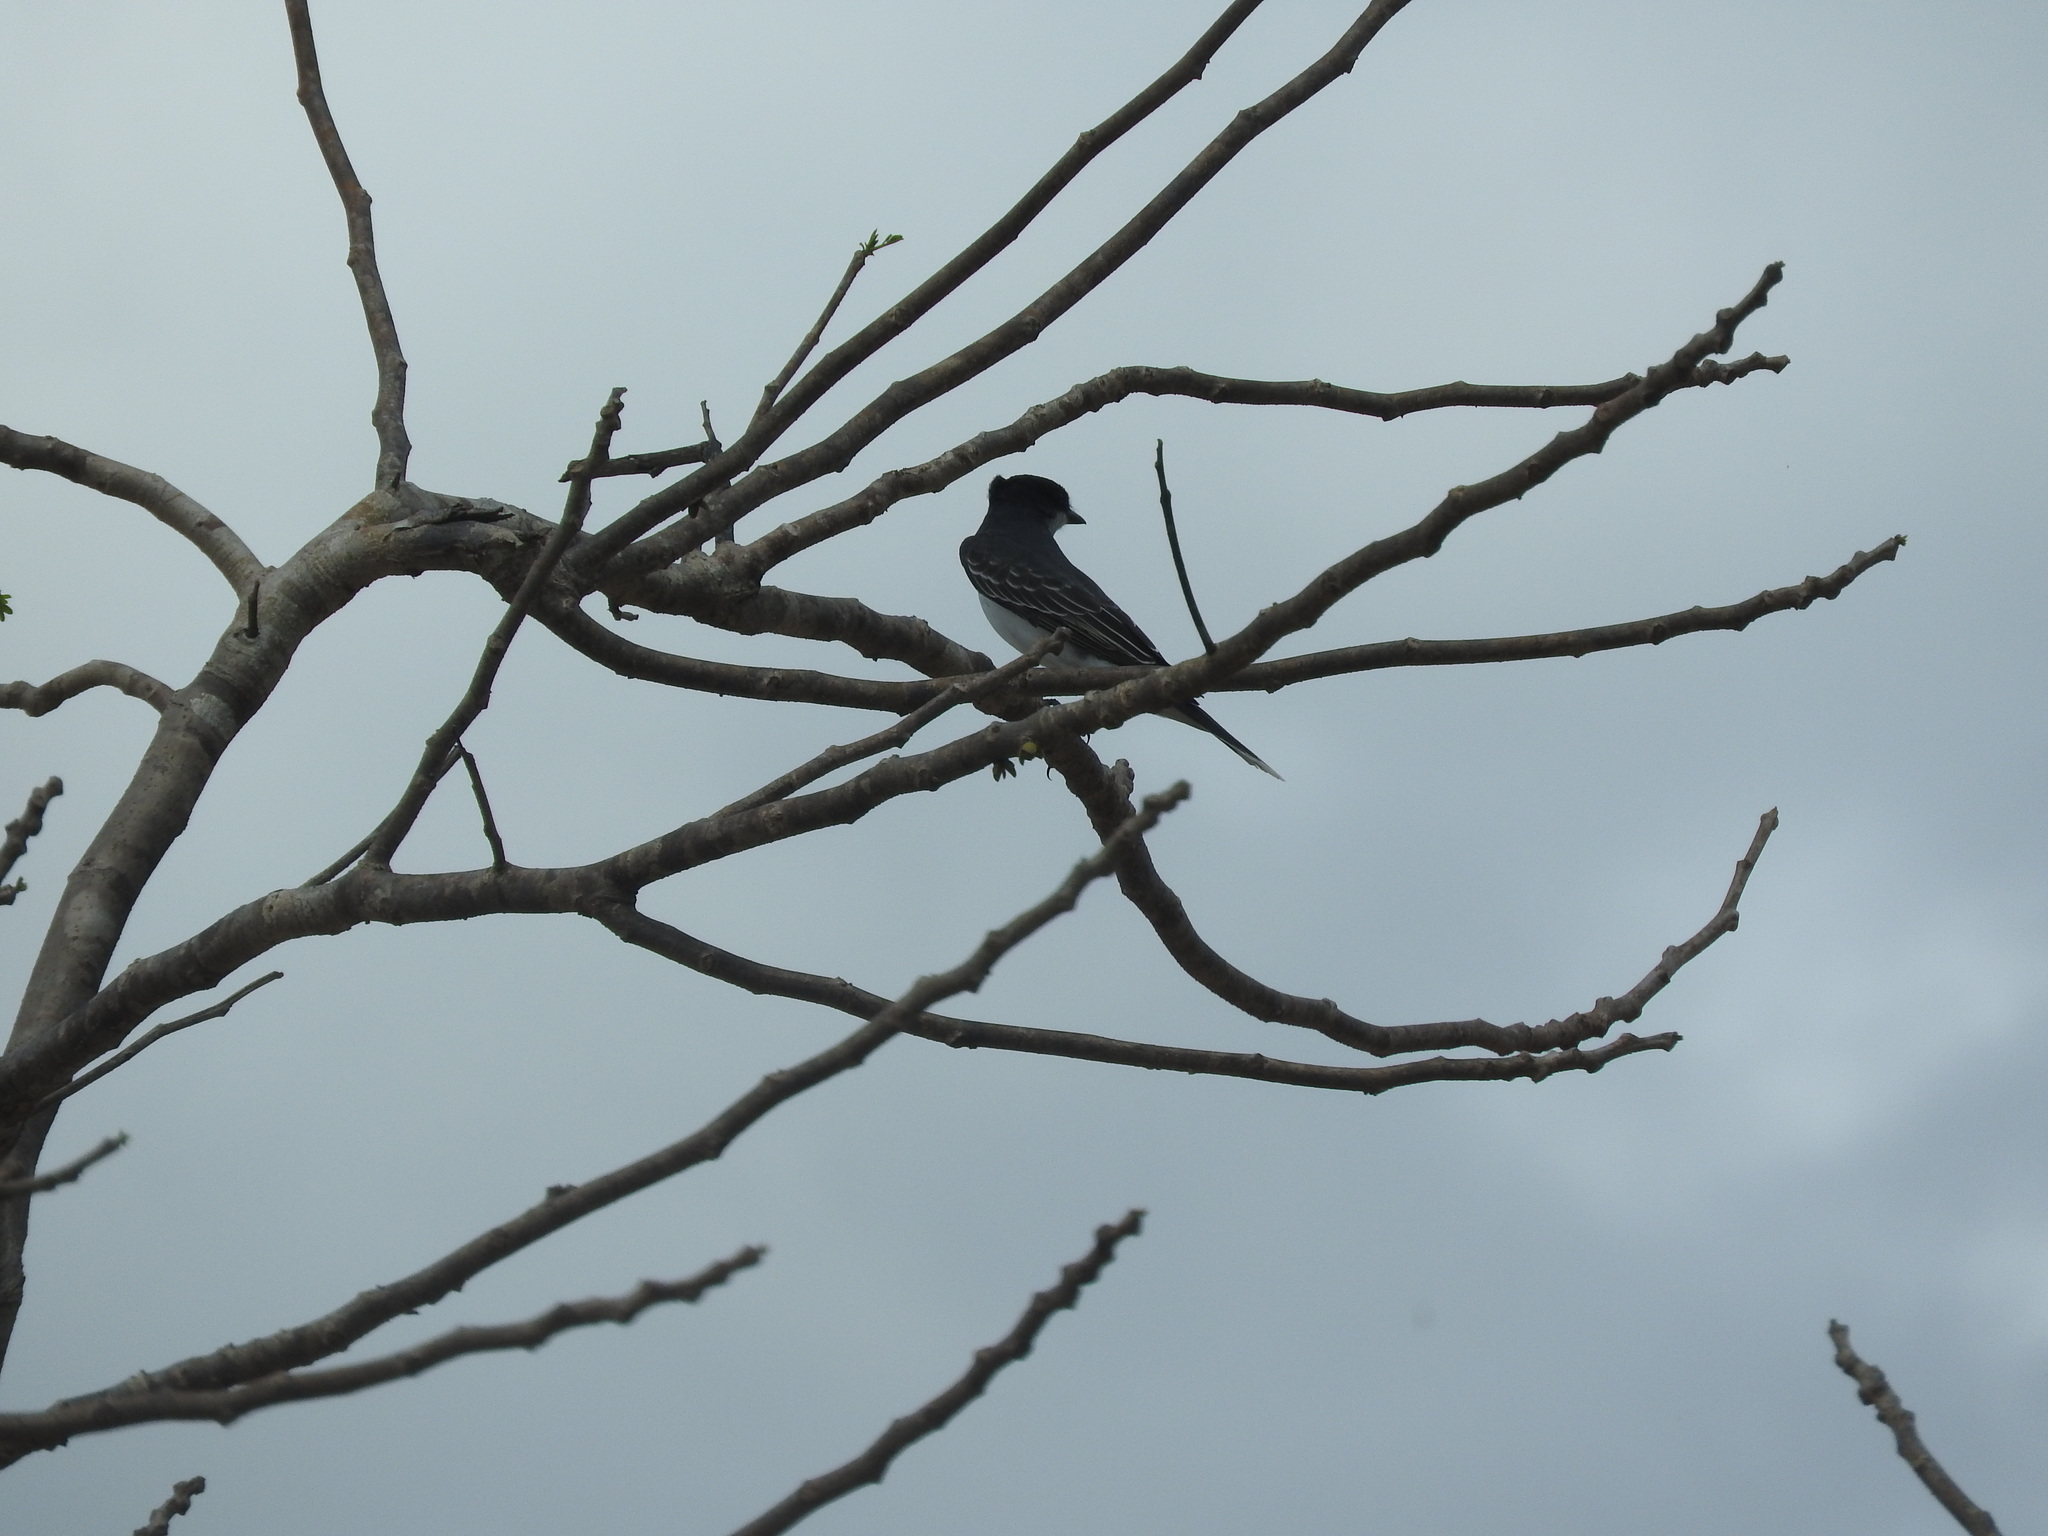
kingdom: Animalia
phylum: Chordata
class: Aves
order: Passeriformes
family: Tyrannidae
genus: Tyrannus
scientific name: Tyrannus tyrannus
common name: Eastern kingbird
